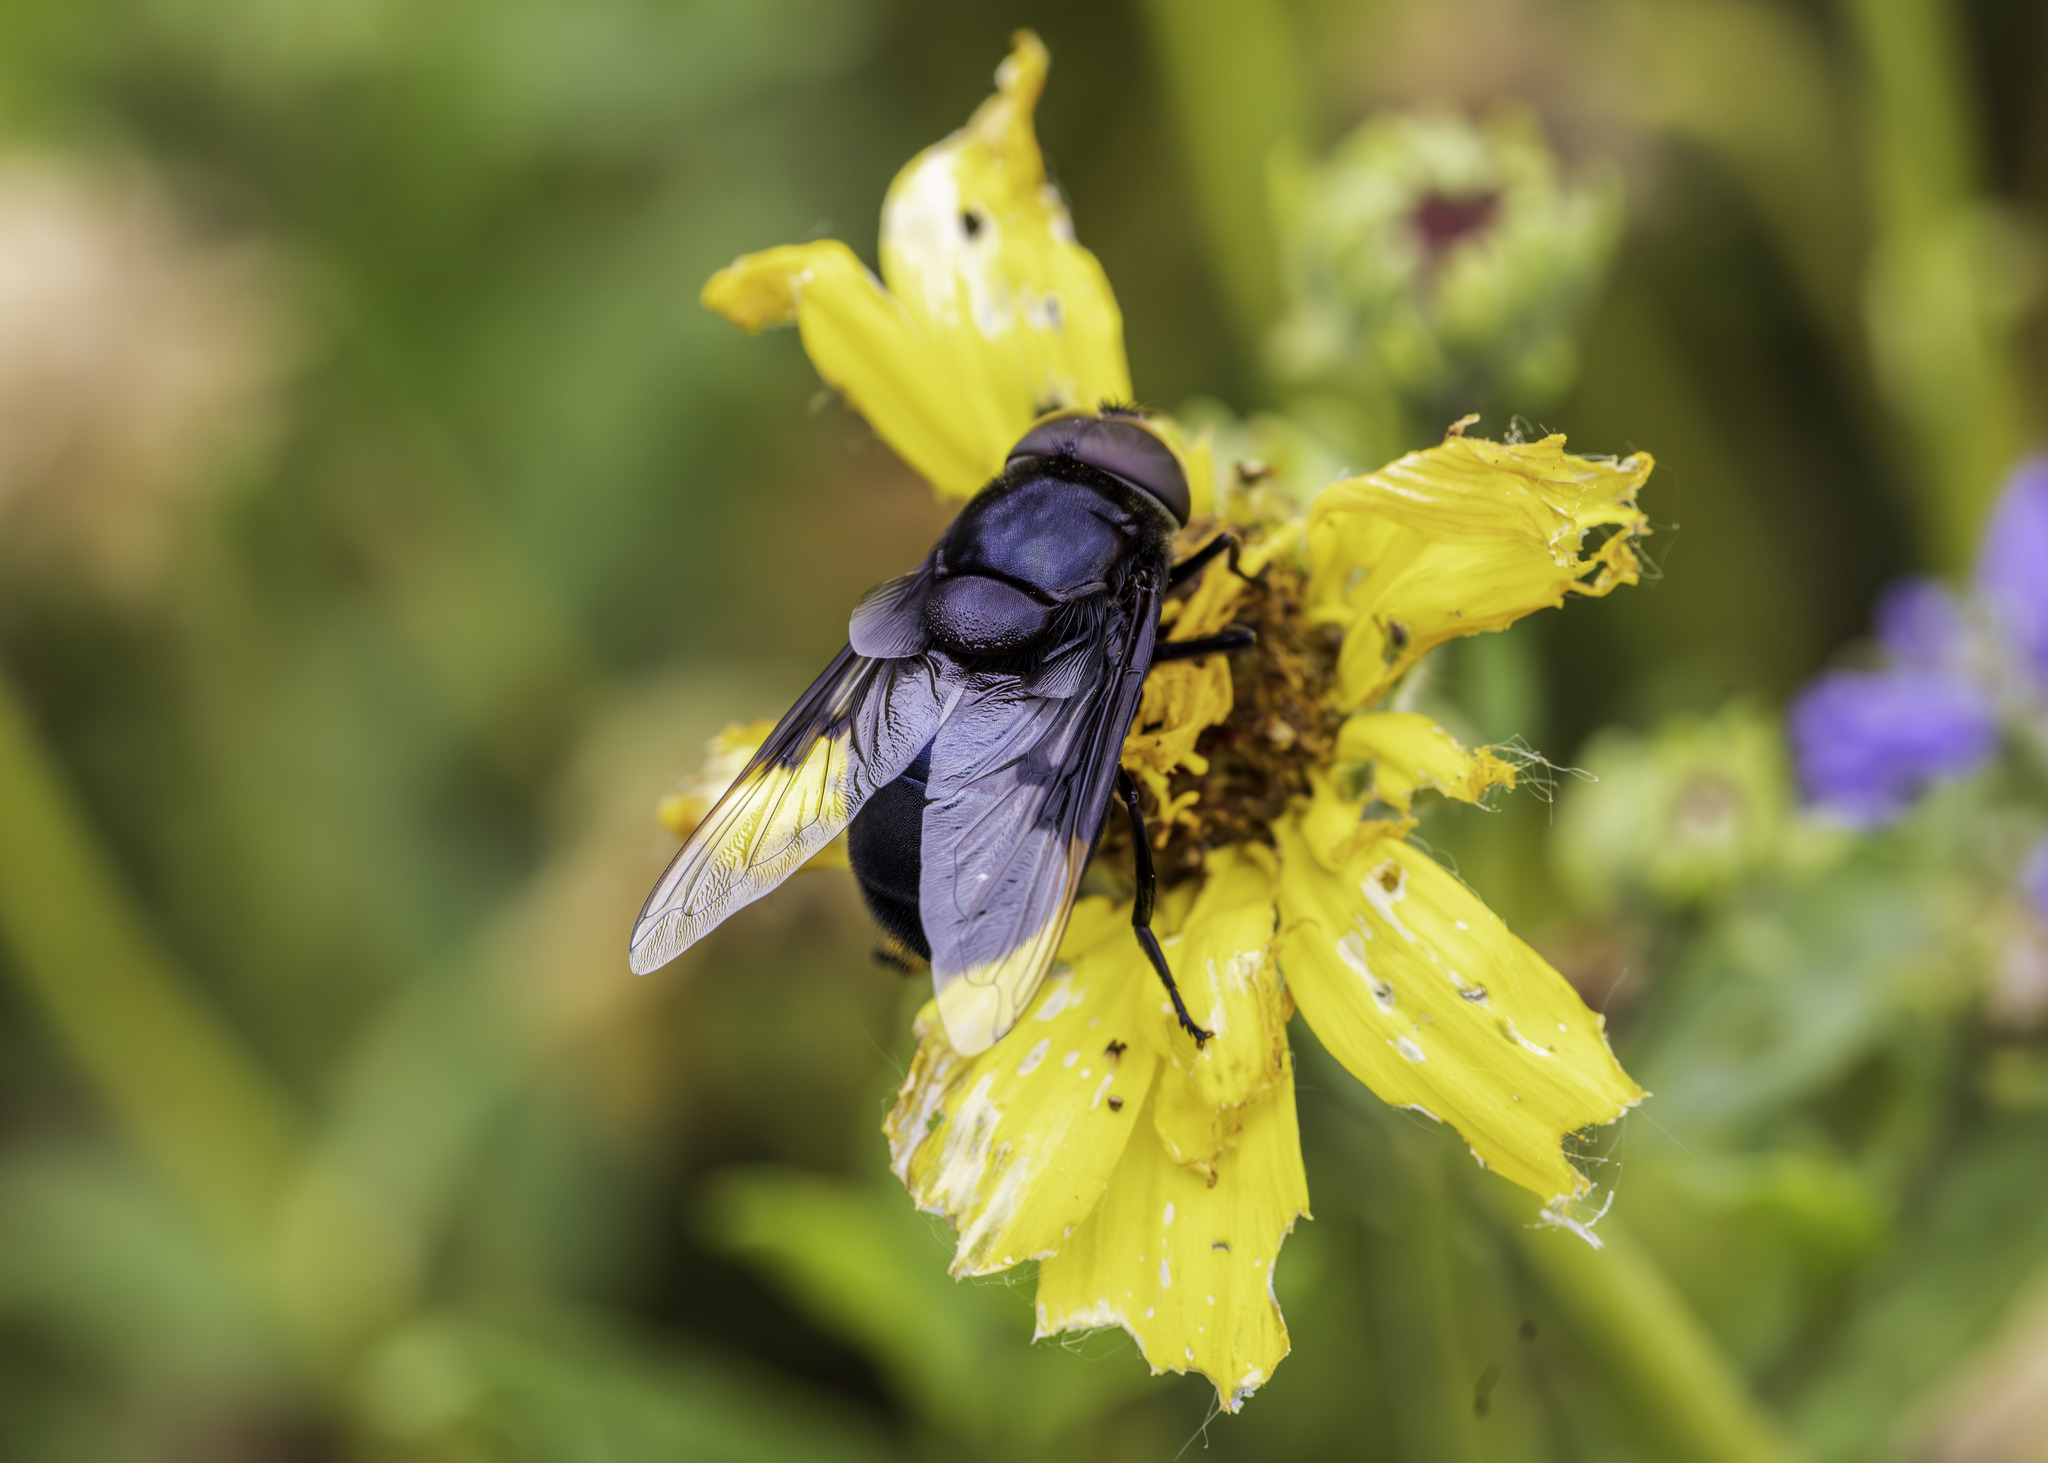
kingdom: Animalia
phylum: Arthropoda
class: Insecta
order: Diptera
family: Syrphidae
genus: Copestylum
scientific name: Copestylum mexicanum
